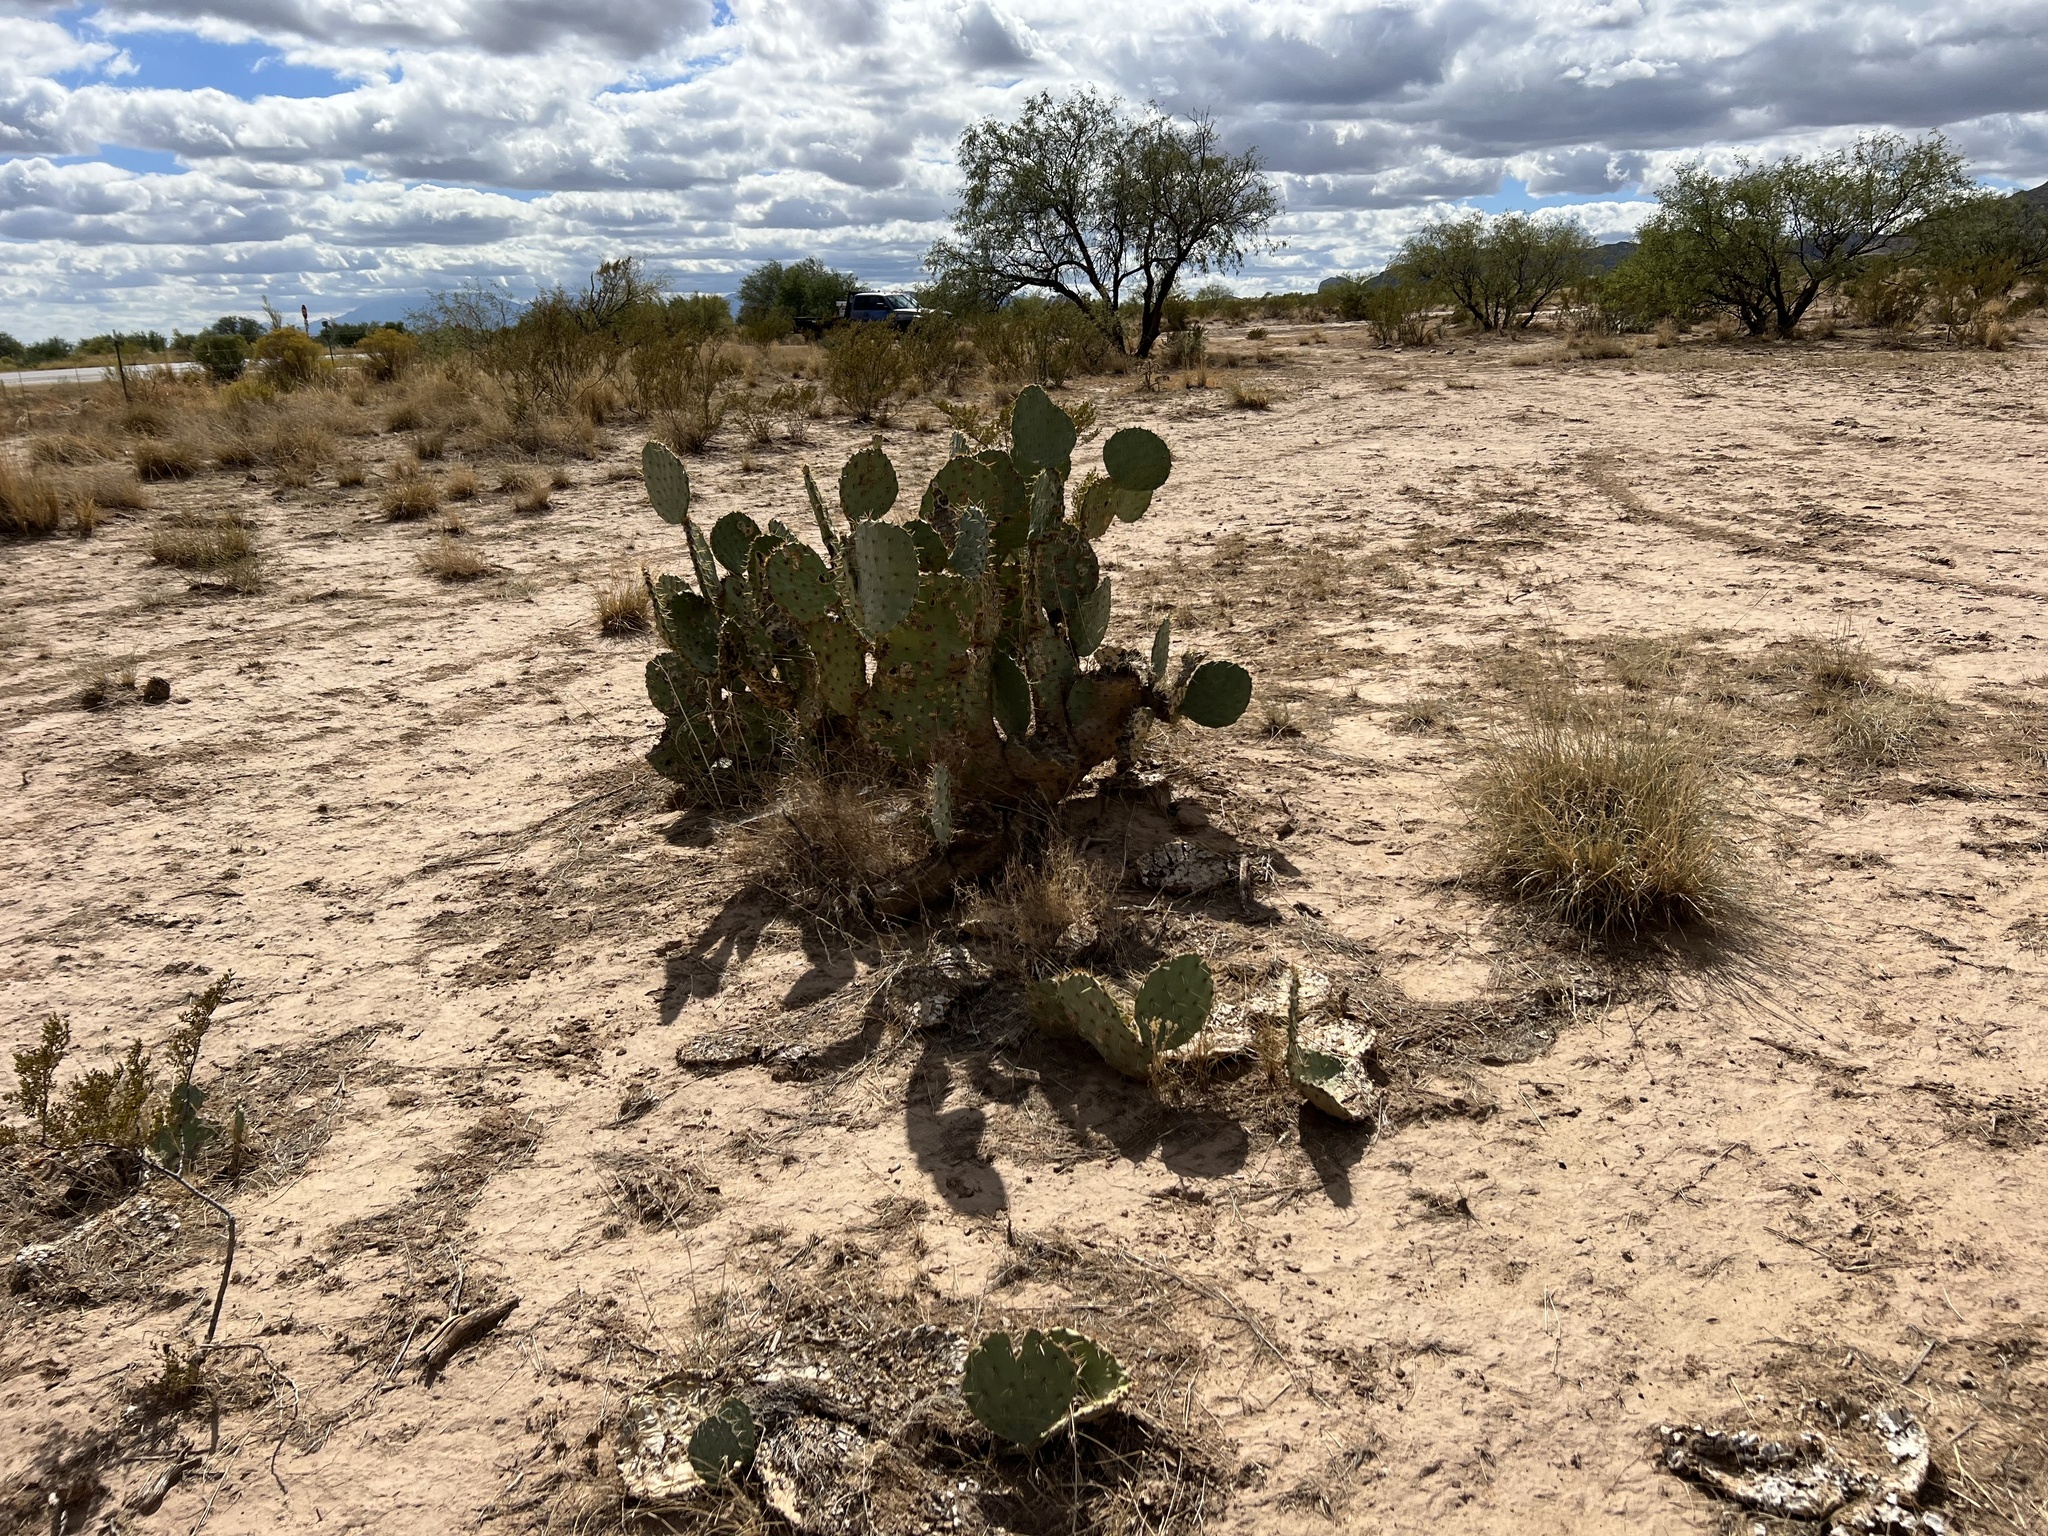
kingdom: Plantae
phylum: Tracheophyta
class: Magnoliopsida
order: Caryophyllales
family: Cactaceae
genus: Opuntia
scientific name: Opuntia engelmannii
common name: Cactus-apple
